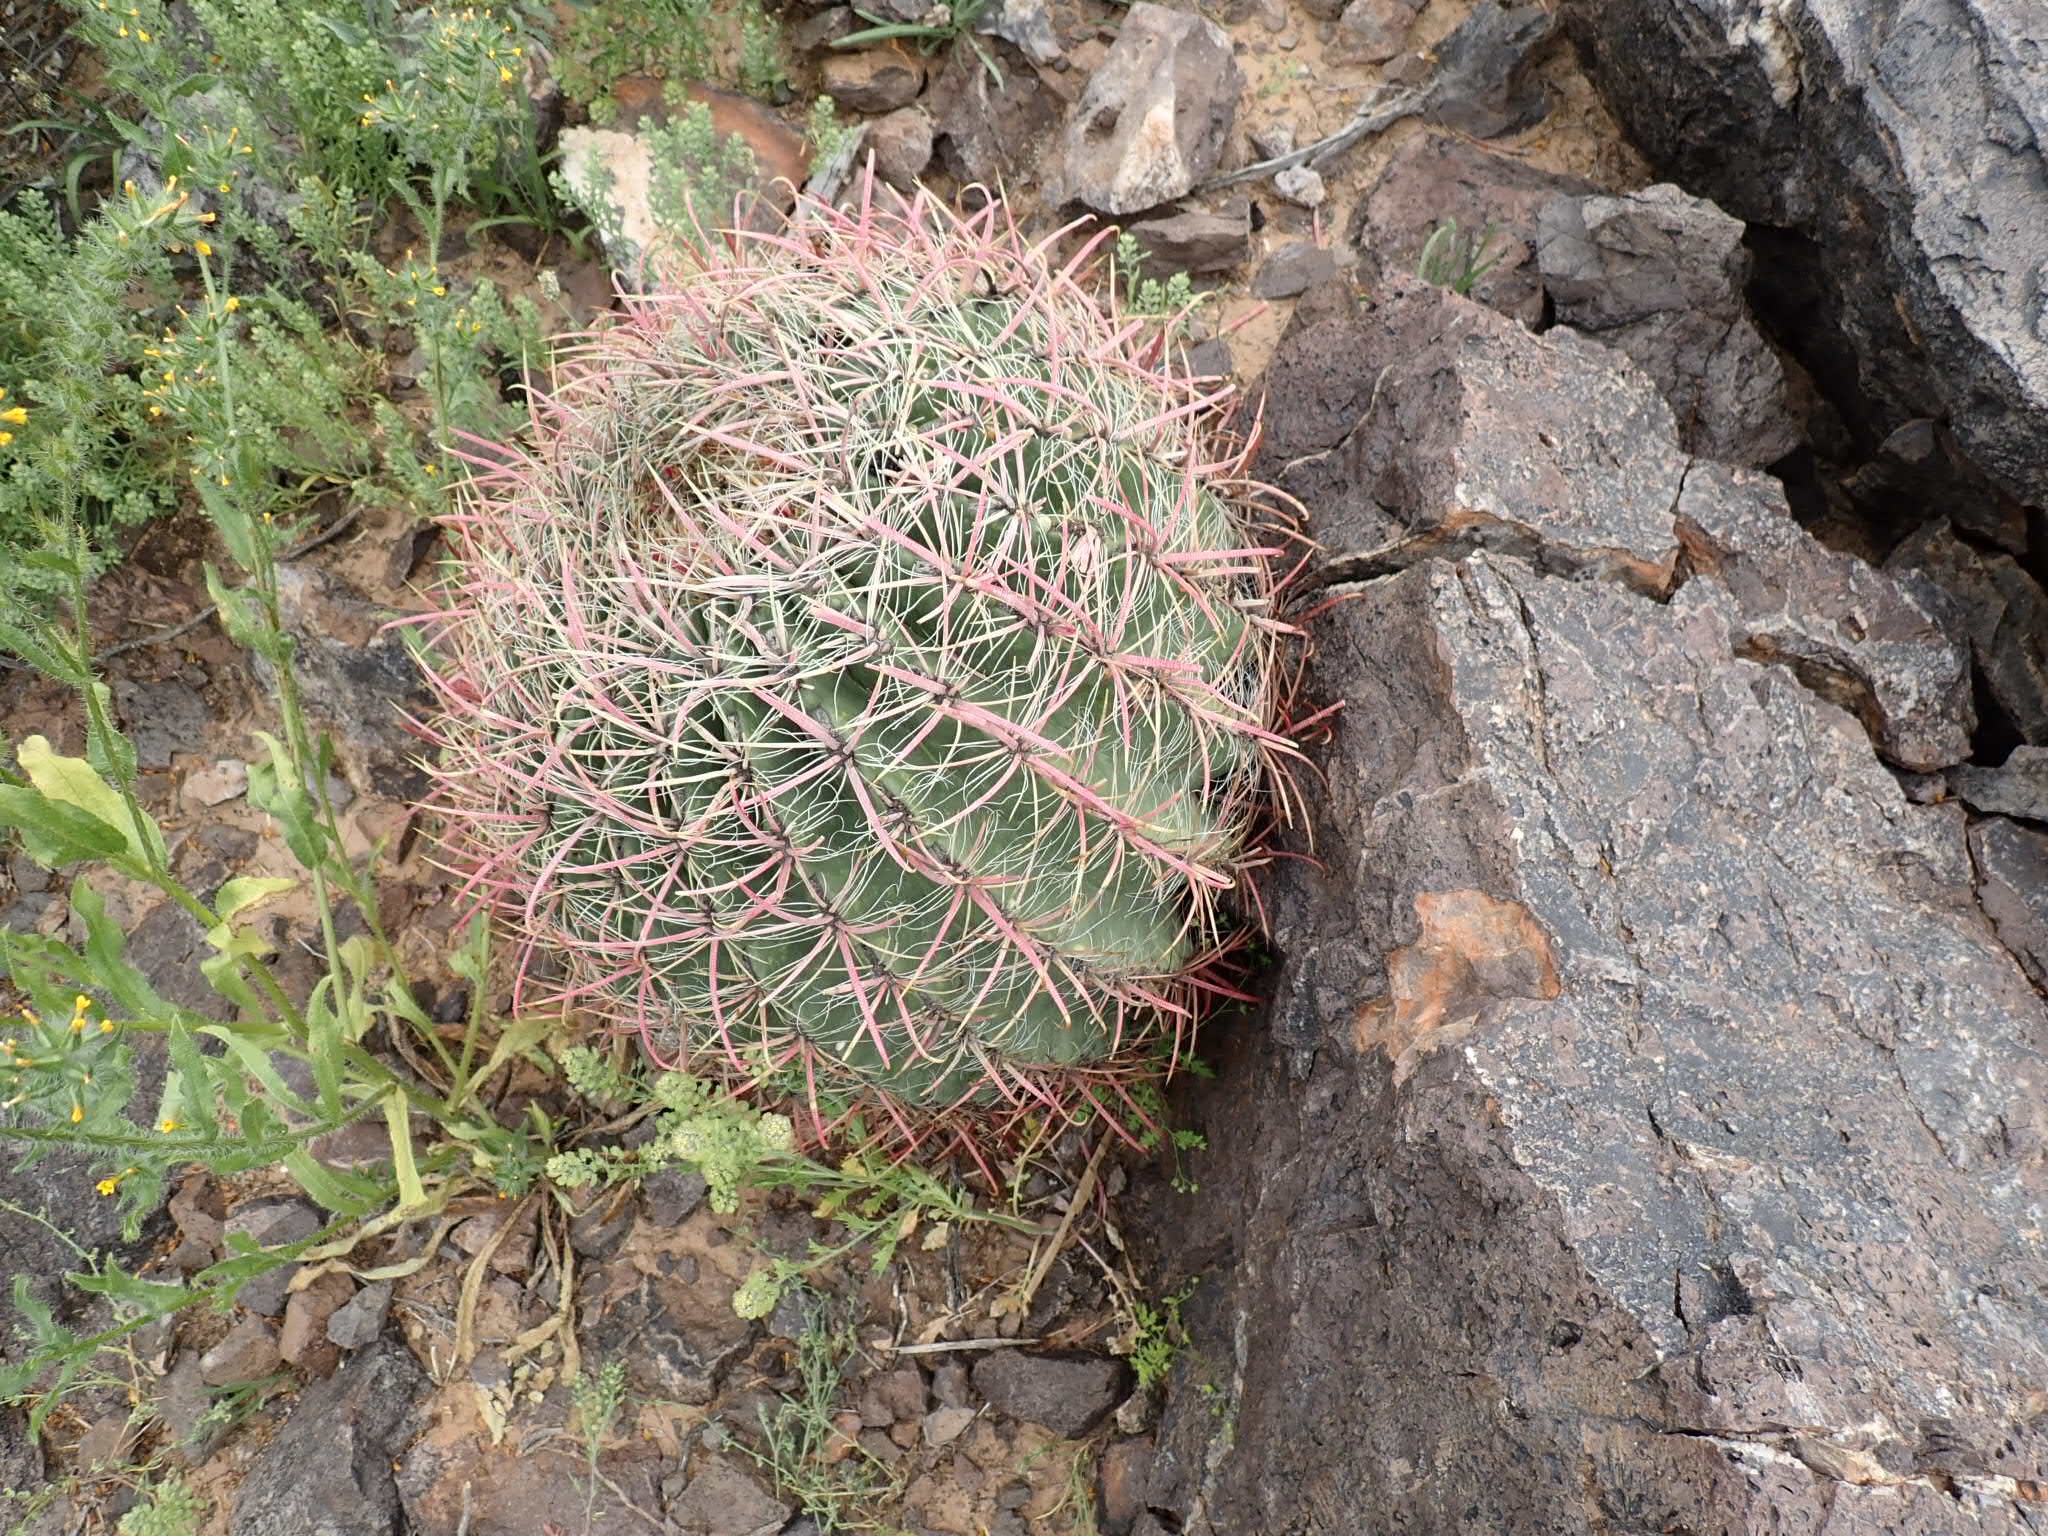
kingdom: Plantae
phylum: Tracheophyta
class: Magnoliopsida
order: Caryophyllales
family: Cactaceae
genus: Ferocactus
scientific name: Ferocactus cylindraceus
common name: California barrel cactus
